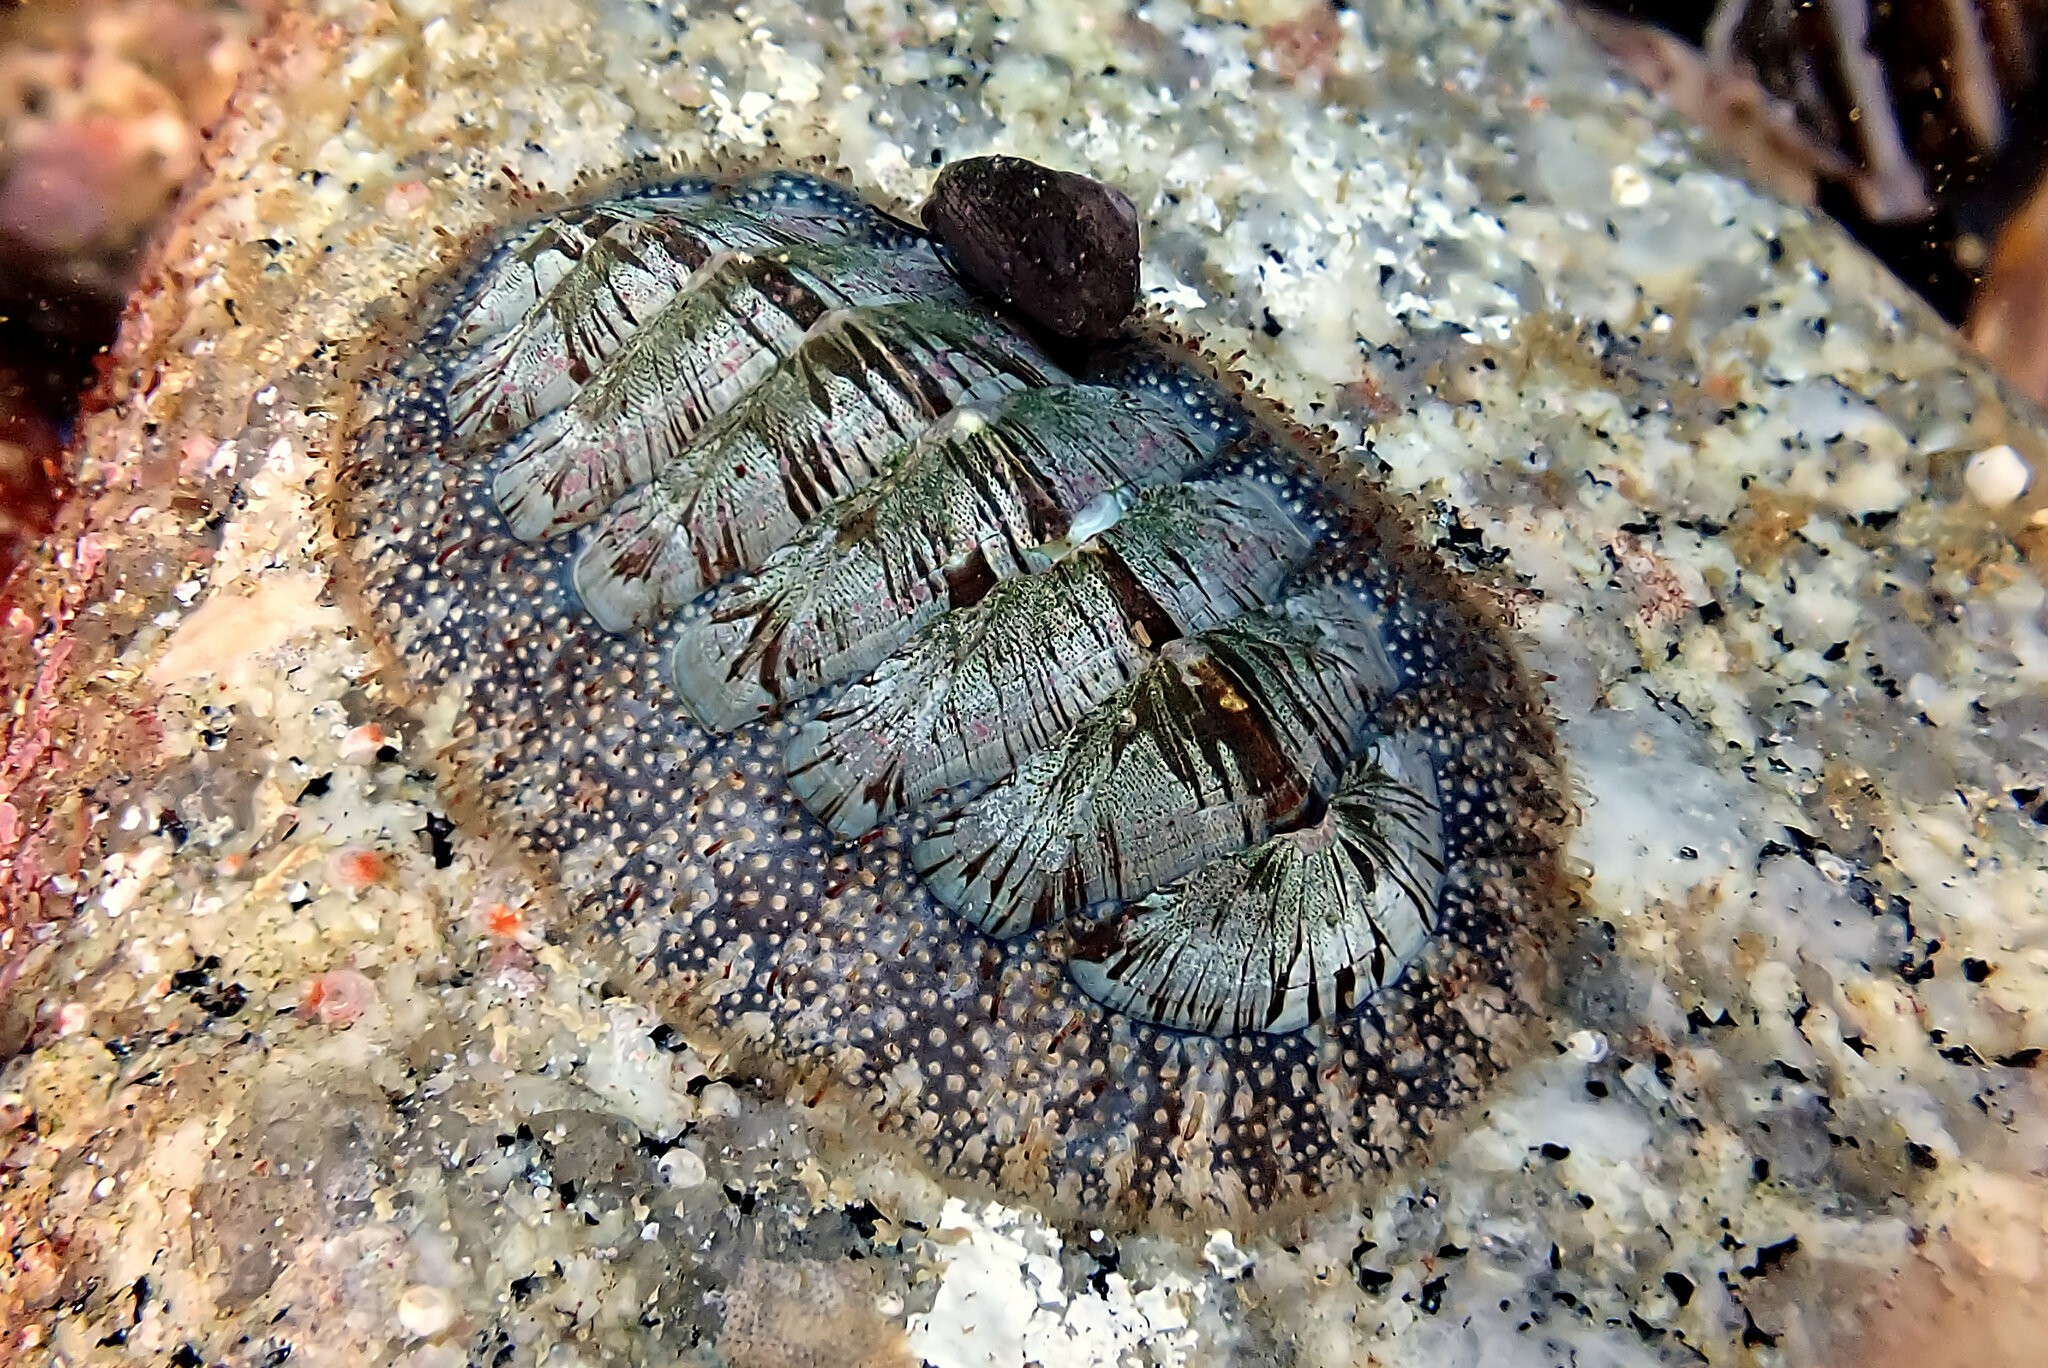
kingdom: Animalia
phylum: Mollusca
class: Polyplacophora
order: Chitonida
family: Mopaliidae
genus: Mopalia
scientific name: Mopalia lignosa
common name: Woody chiton
